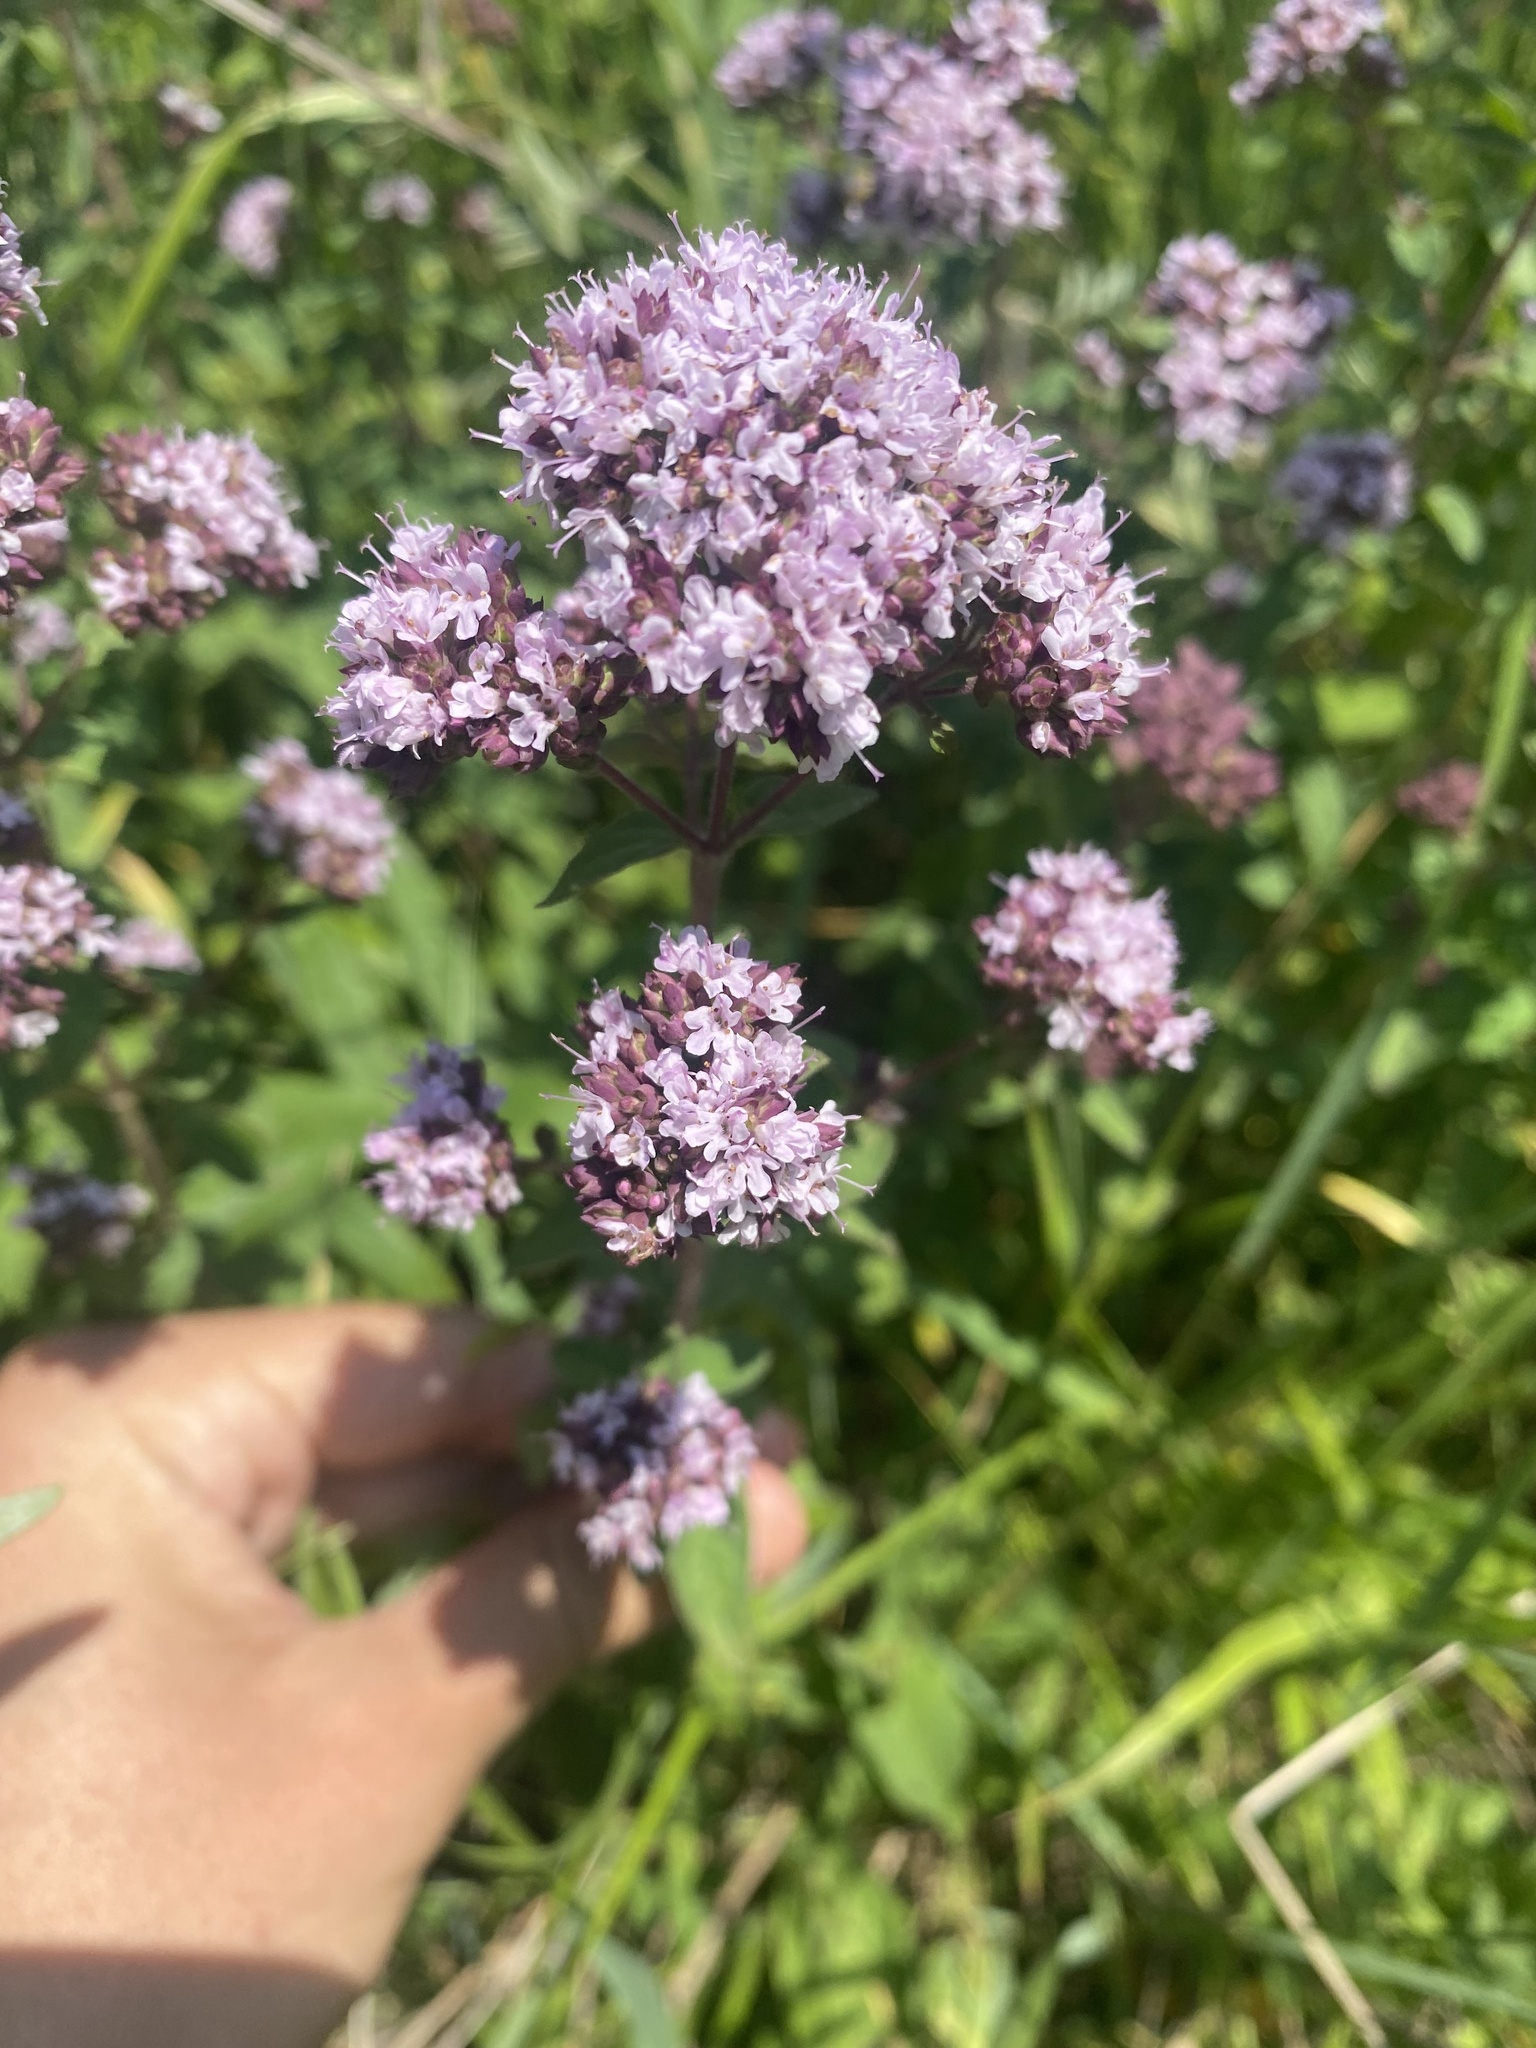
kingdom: Plantae
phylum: Tracheophyta
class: Magnoliopsida
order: Lamiales
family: Lamiaceae
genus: Origanum
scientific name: Origanum vulgare
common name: Wild marjoram
